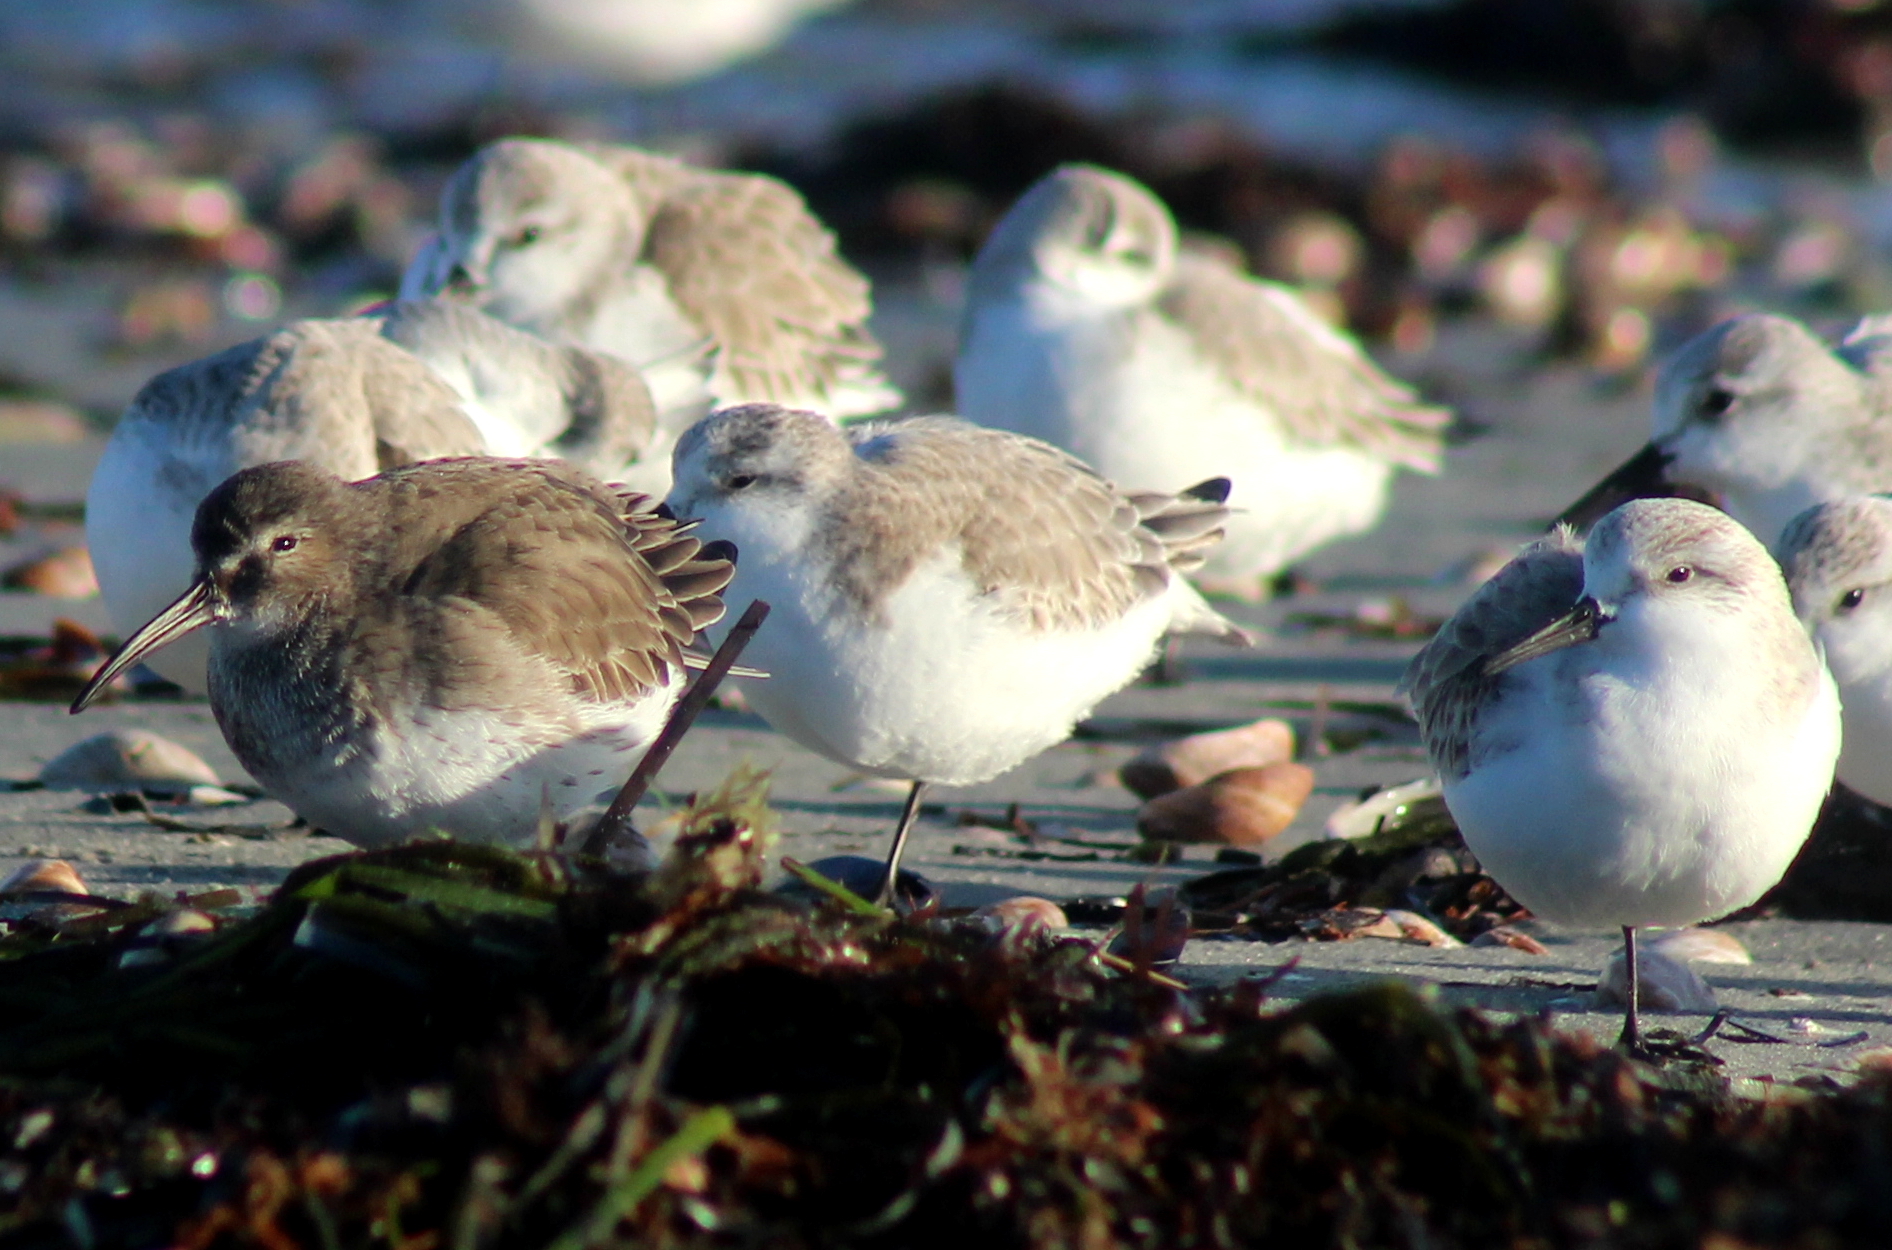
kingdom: Animalia
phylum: Chordata
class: Aves
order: Charadriiformes
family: Scolopacidae
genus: Calidris
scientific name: Calidris alpina
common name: Dunlin
